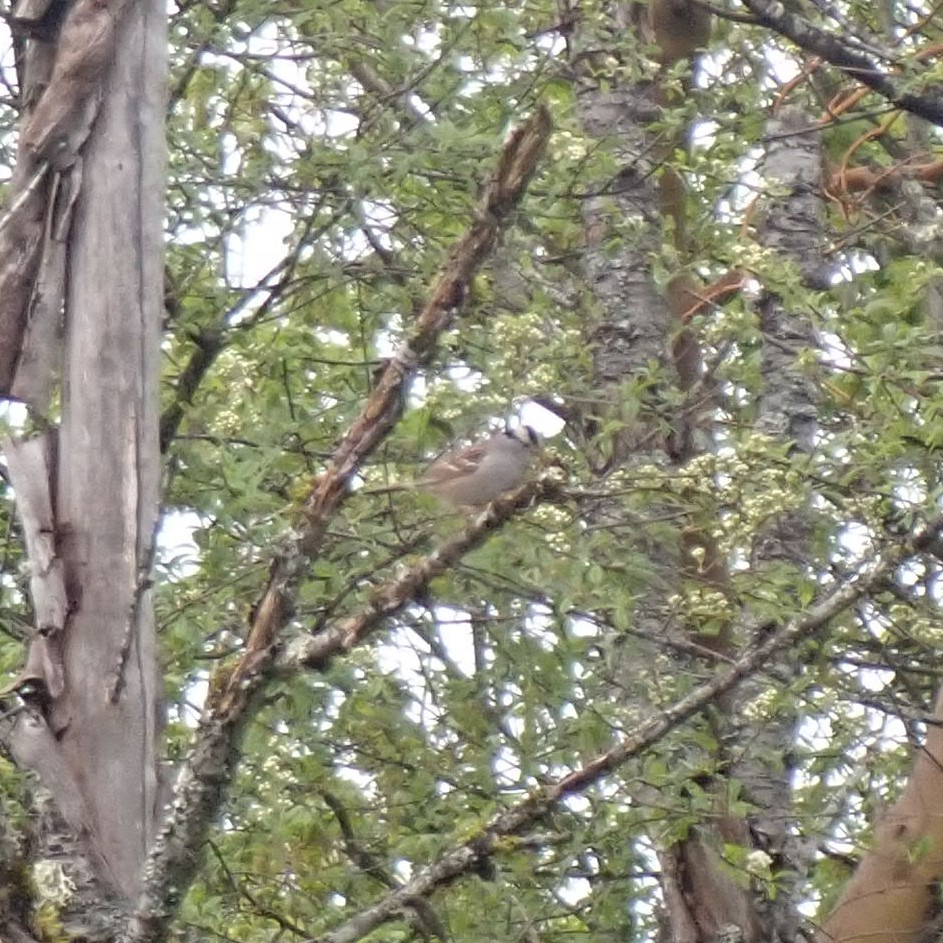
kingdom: Animalia
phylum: Chordata
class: Aves
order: Passeriformes
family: Passerellidae
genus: Zonotrichia
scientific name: Zonotrichia leucophrys
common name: White-crowned sparrow
